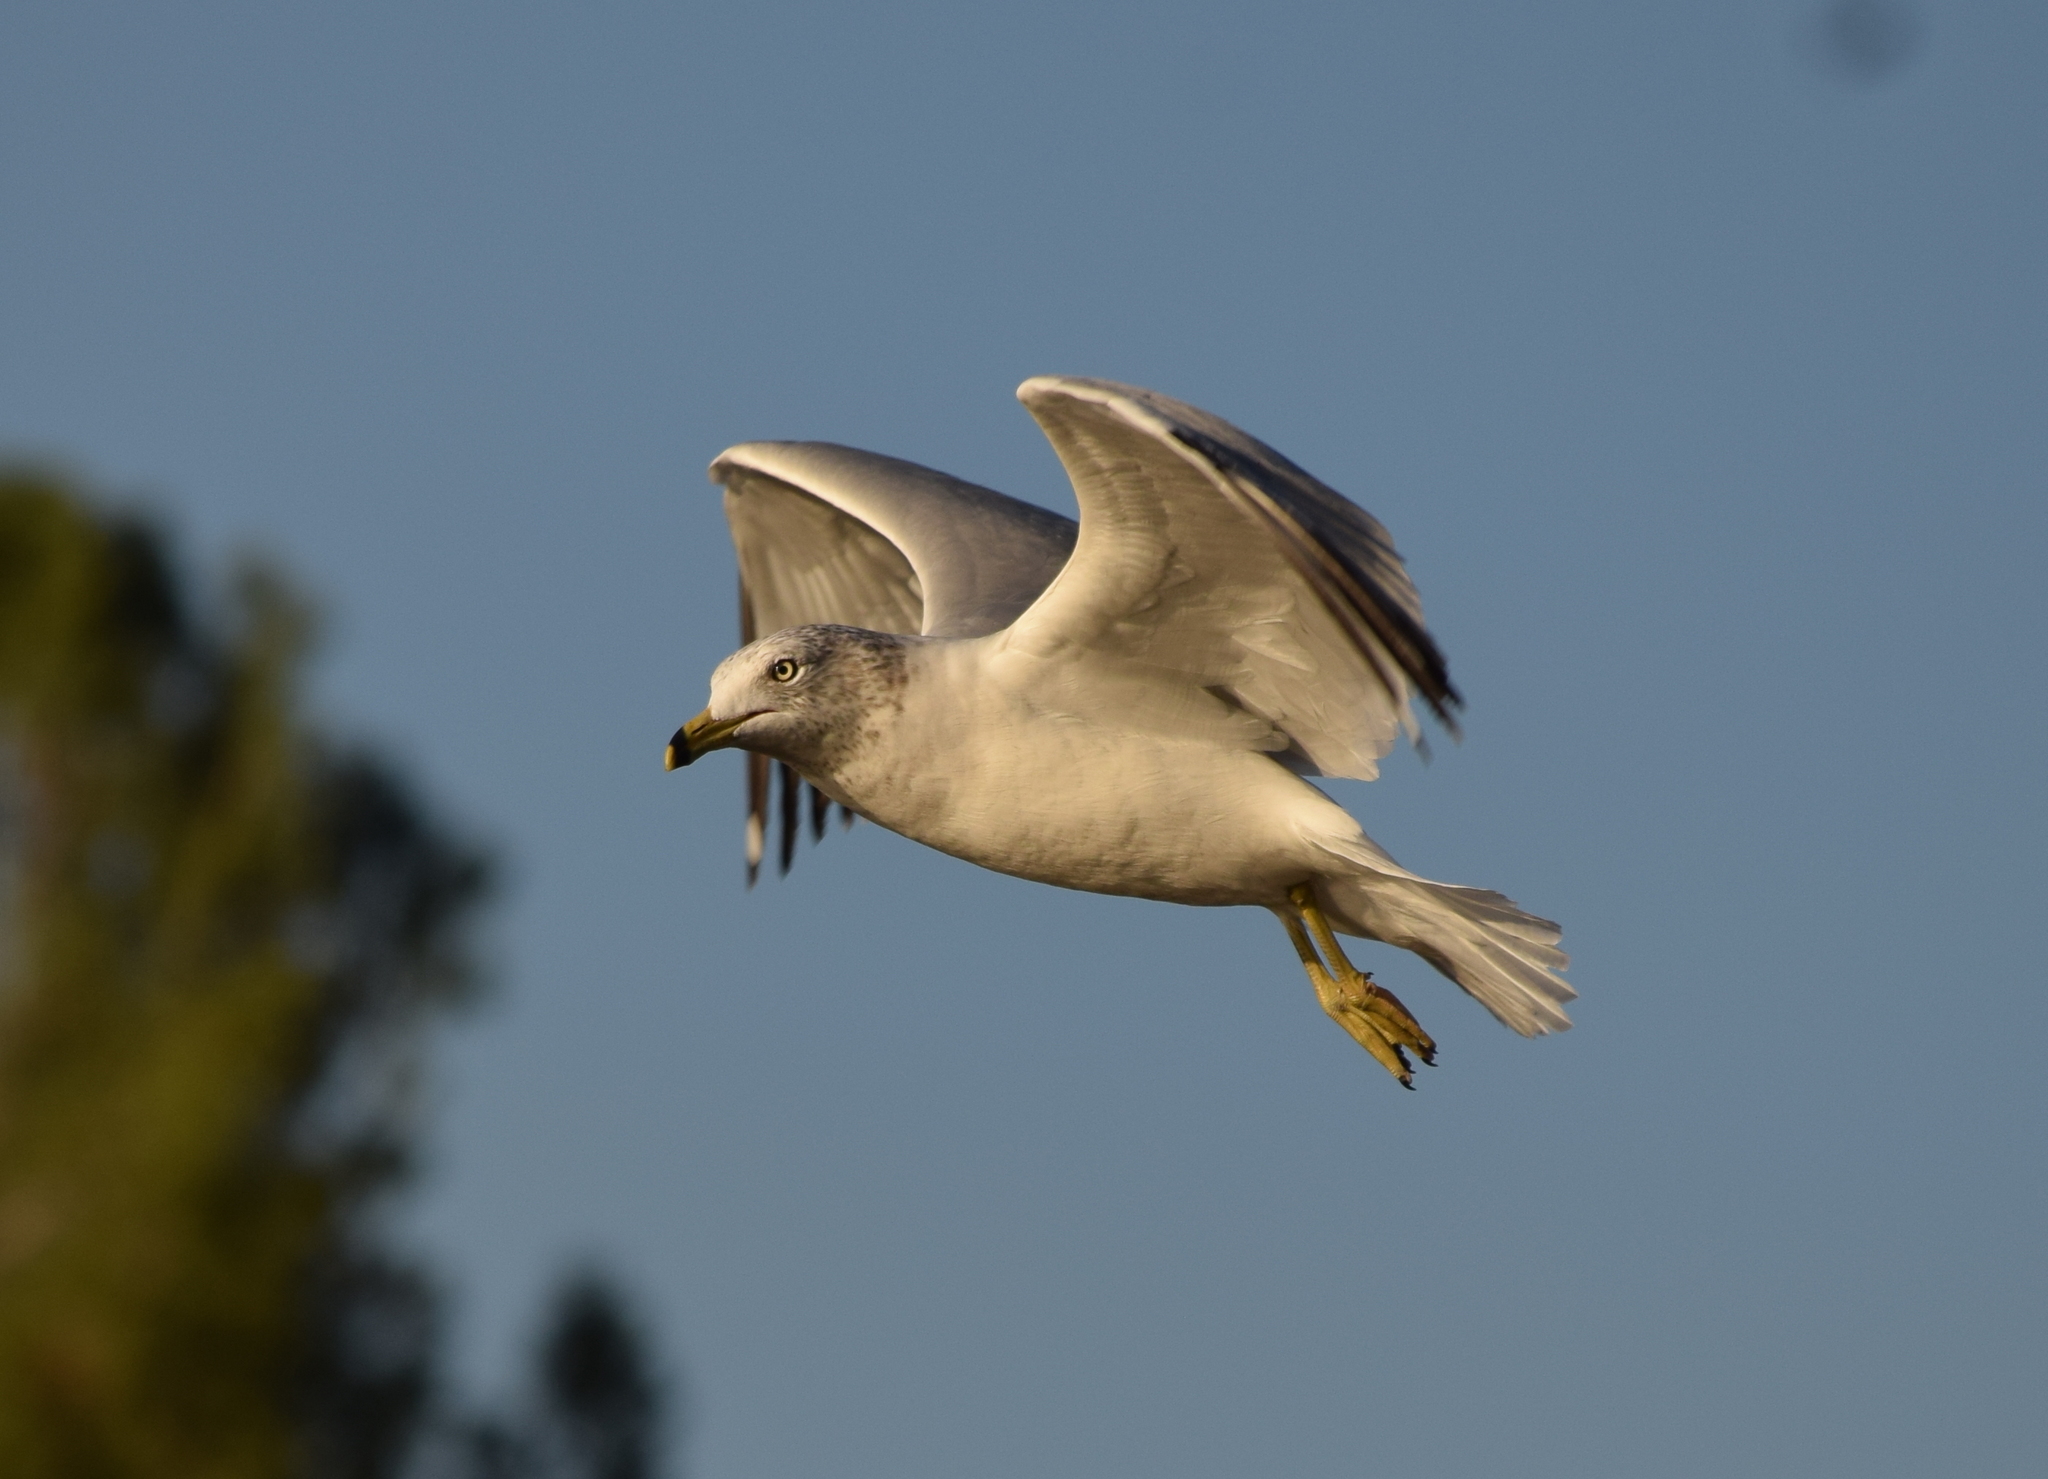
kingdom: Animalia
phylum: Chordata
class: Aves
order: Charadriiformes
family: Laridae
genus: Larus
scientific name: Larus delawarensis
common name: Ring-billed gull
